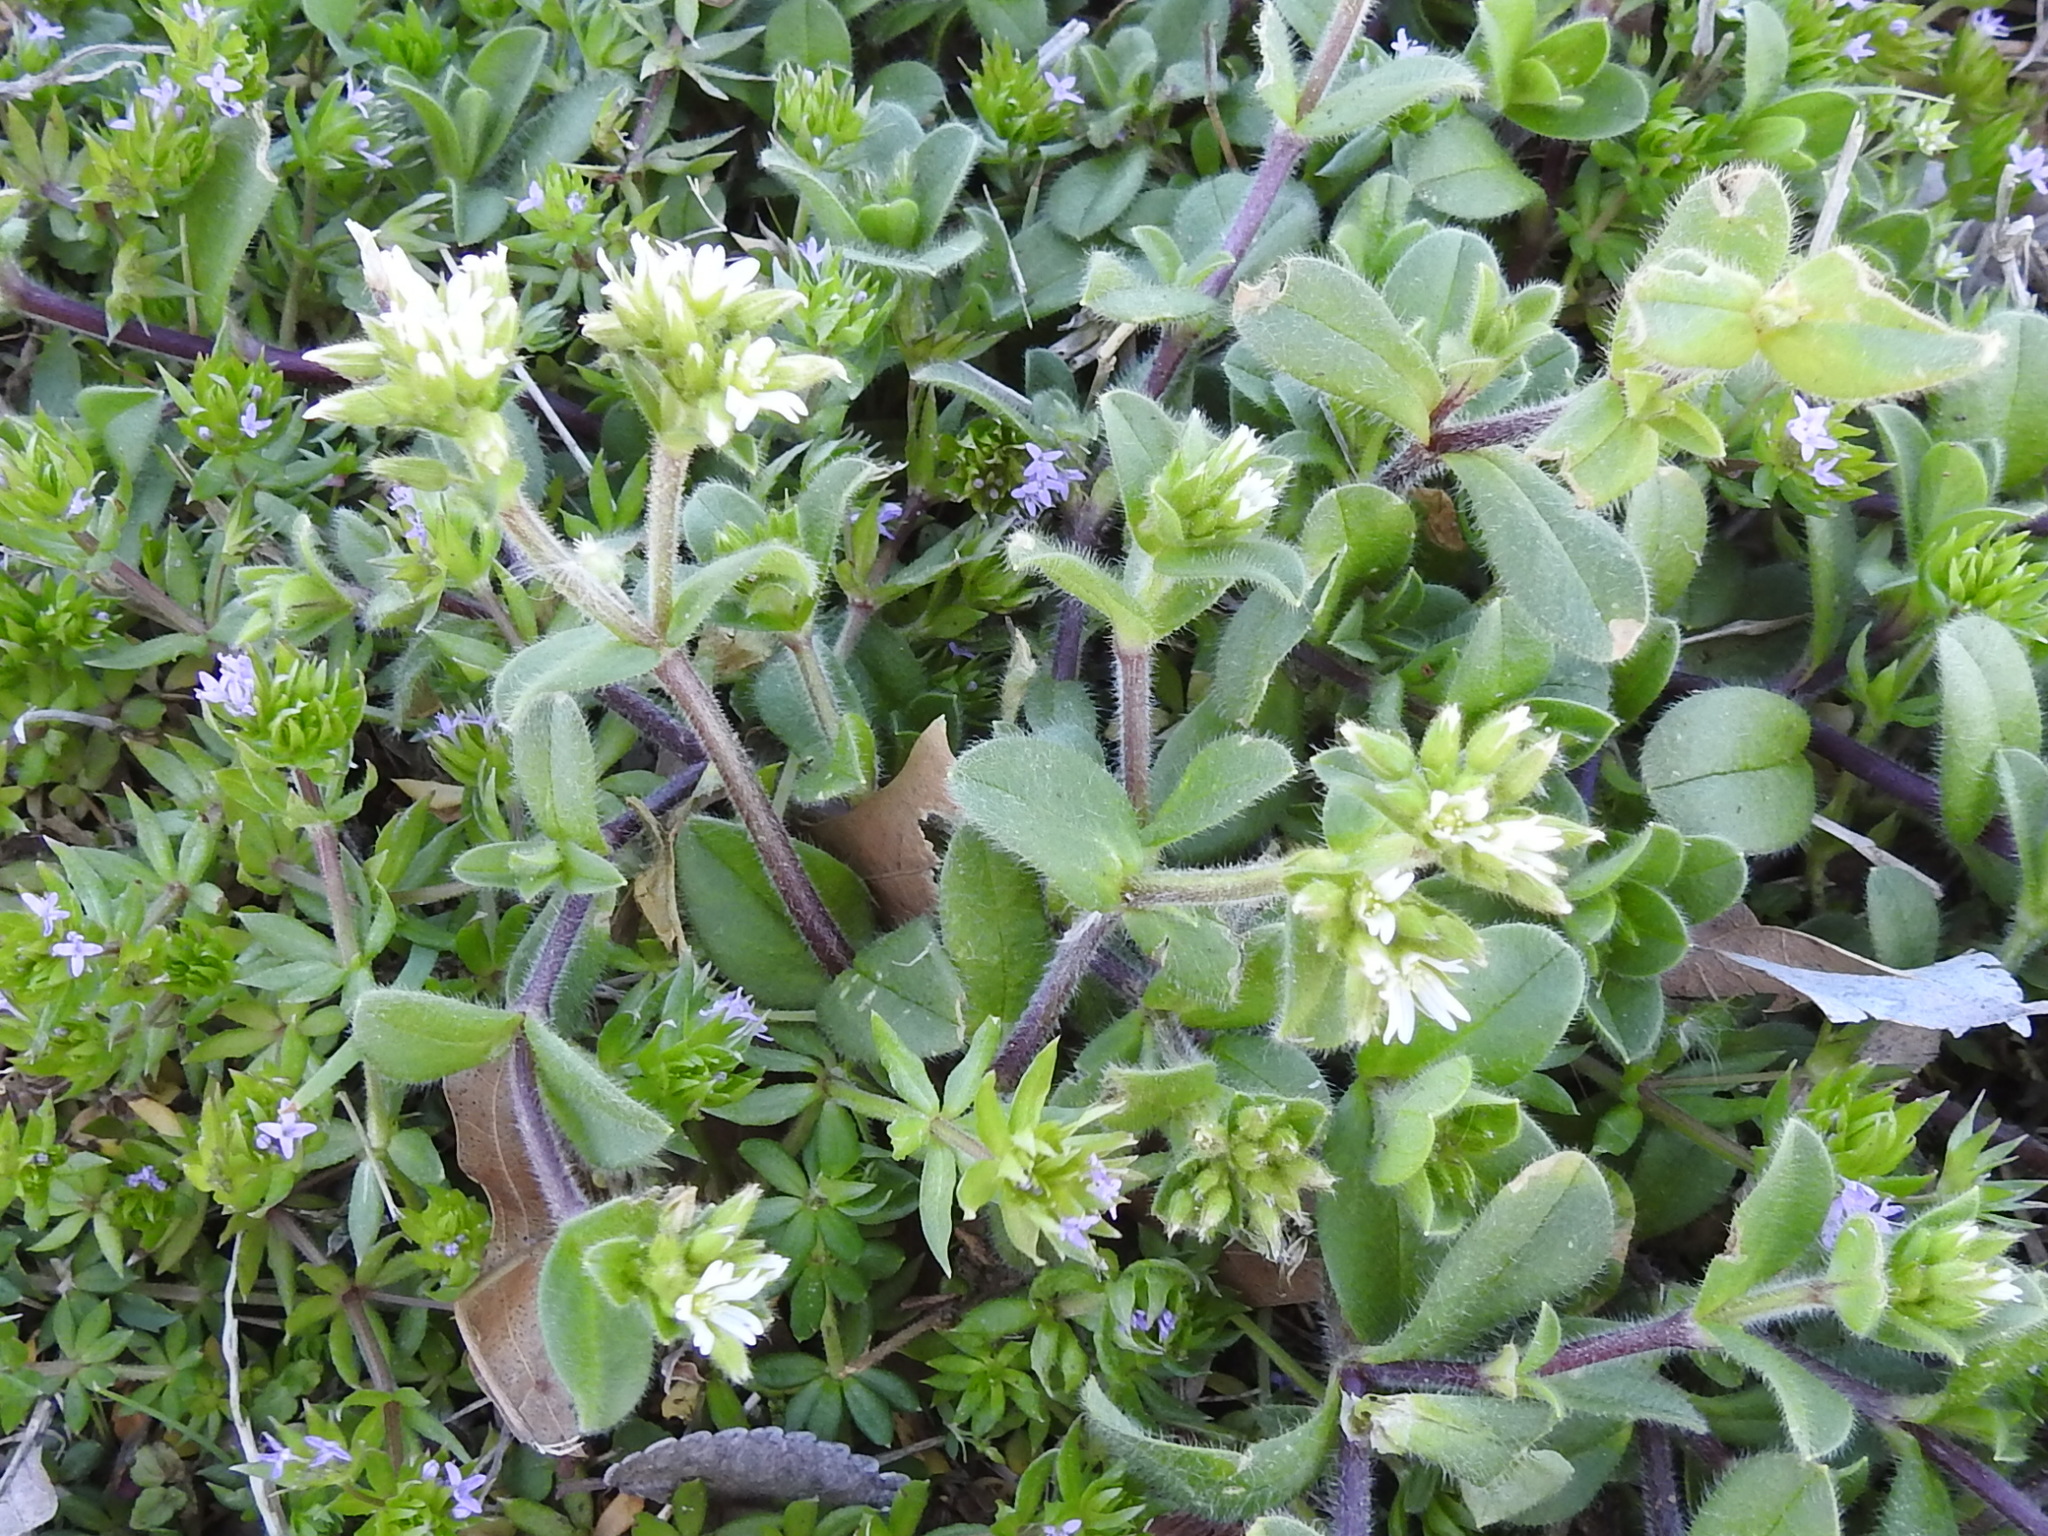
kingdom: Plantae
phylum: Tracheophyta
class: Magnoliopsida
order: Caryophyllales
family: Caryophyllaceae
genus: Cerastium
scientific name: Cerastium glomeratum
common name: Sticky chickweed
